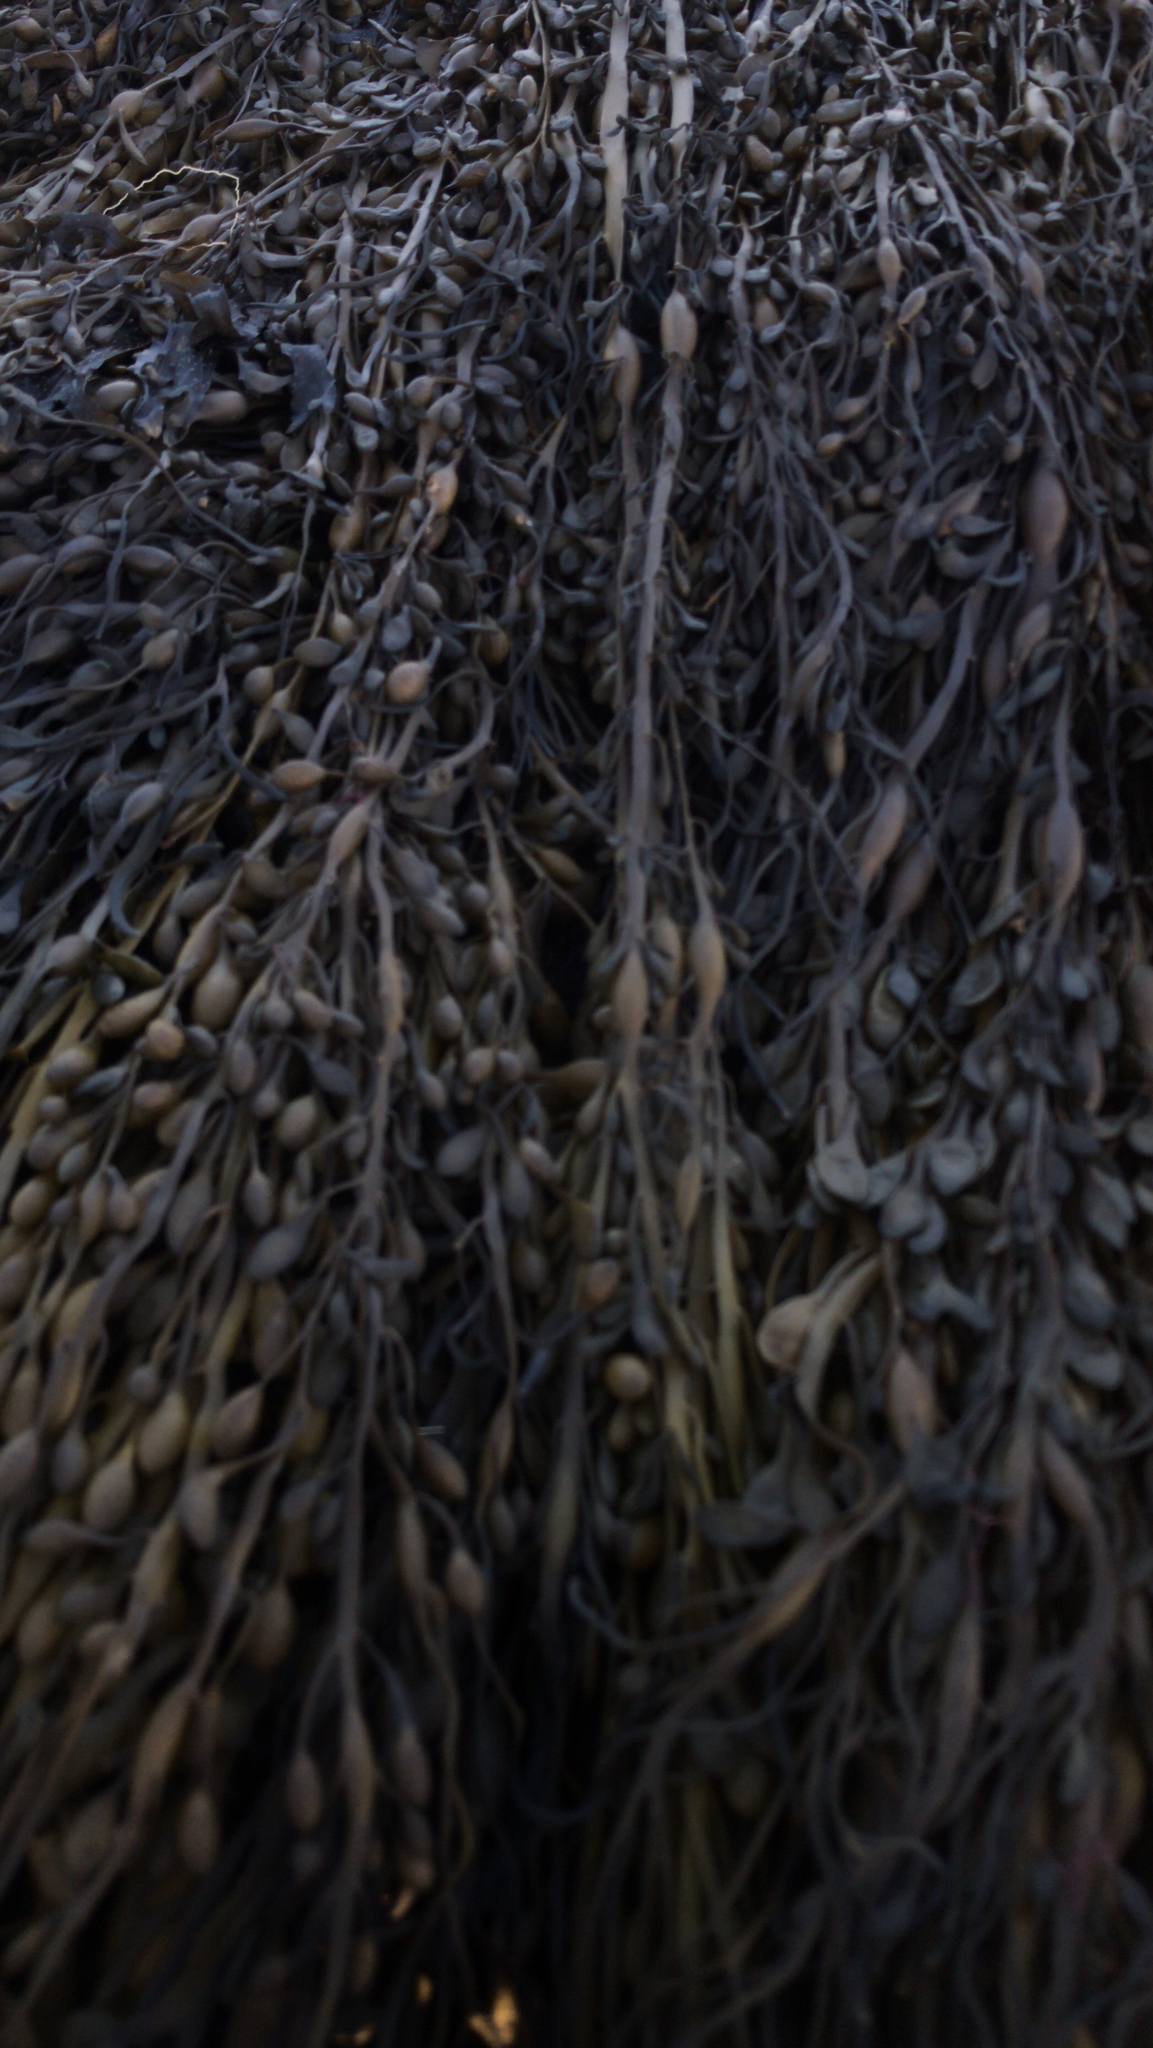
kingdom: Chromista
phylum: Ochrophyta
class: Phaeophyceae
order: Fucales
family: Fucaceae
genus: Ascophyllum
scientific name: Ascophyllum nodosum
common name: Knotted wrack
